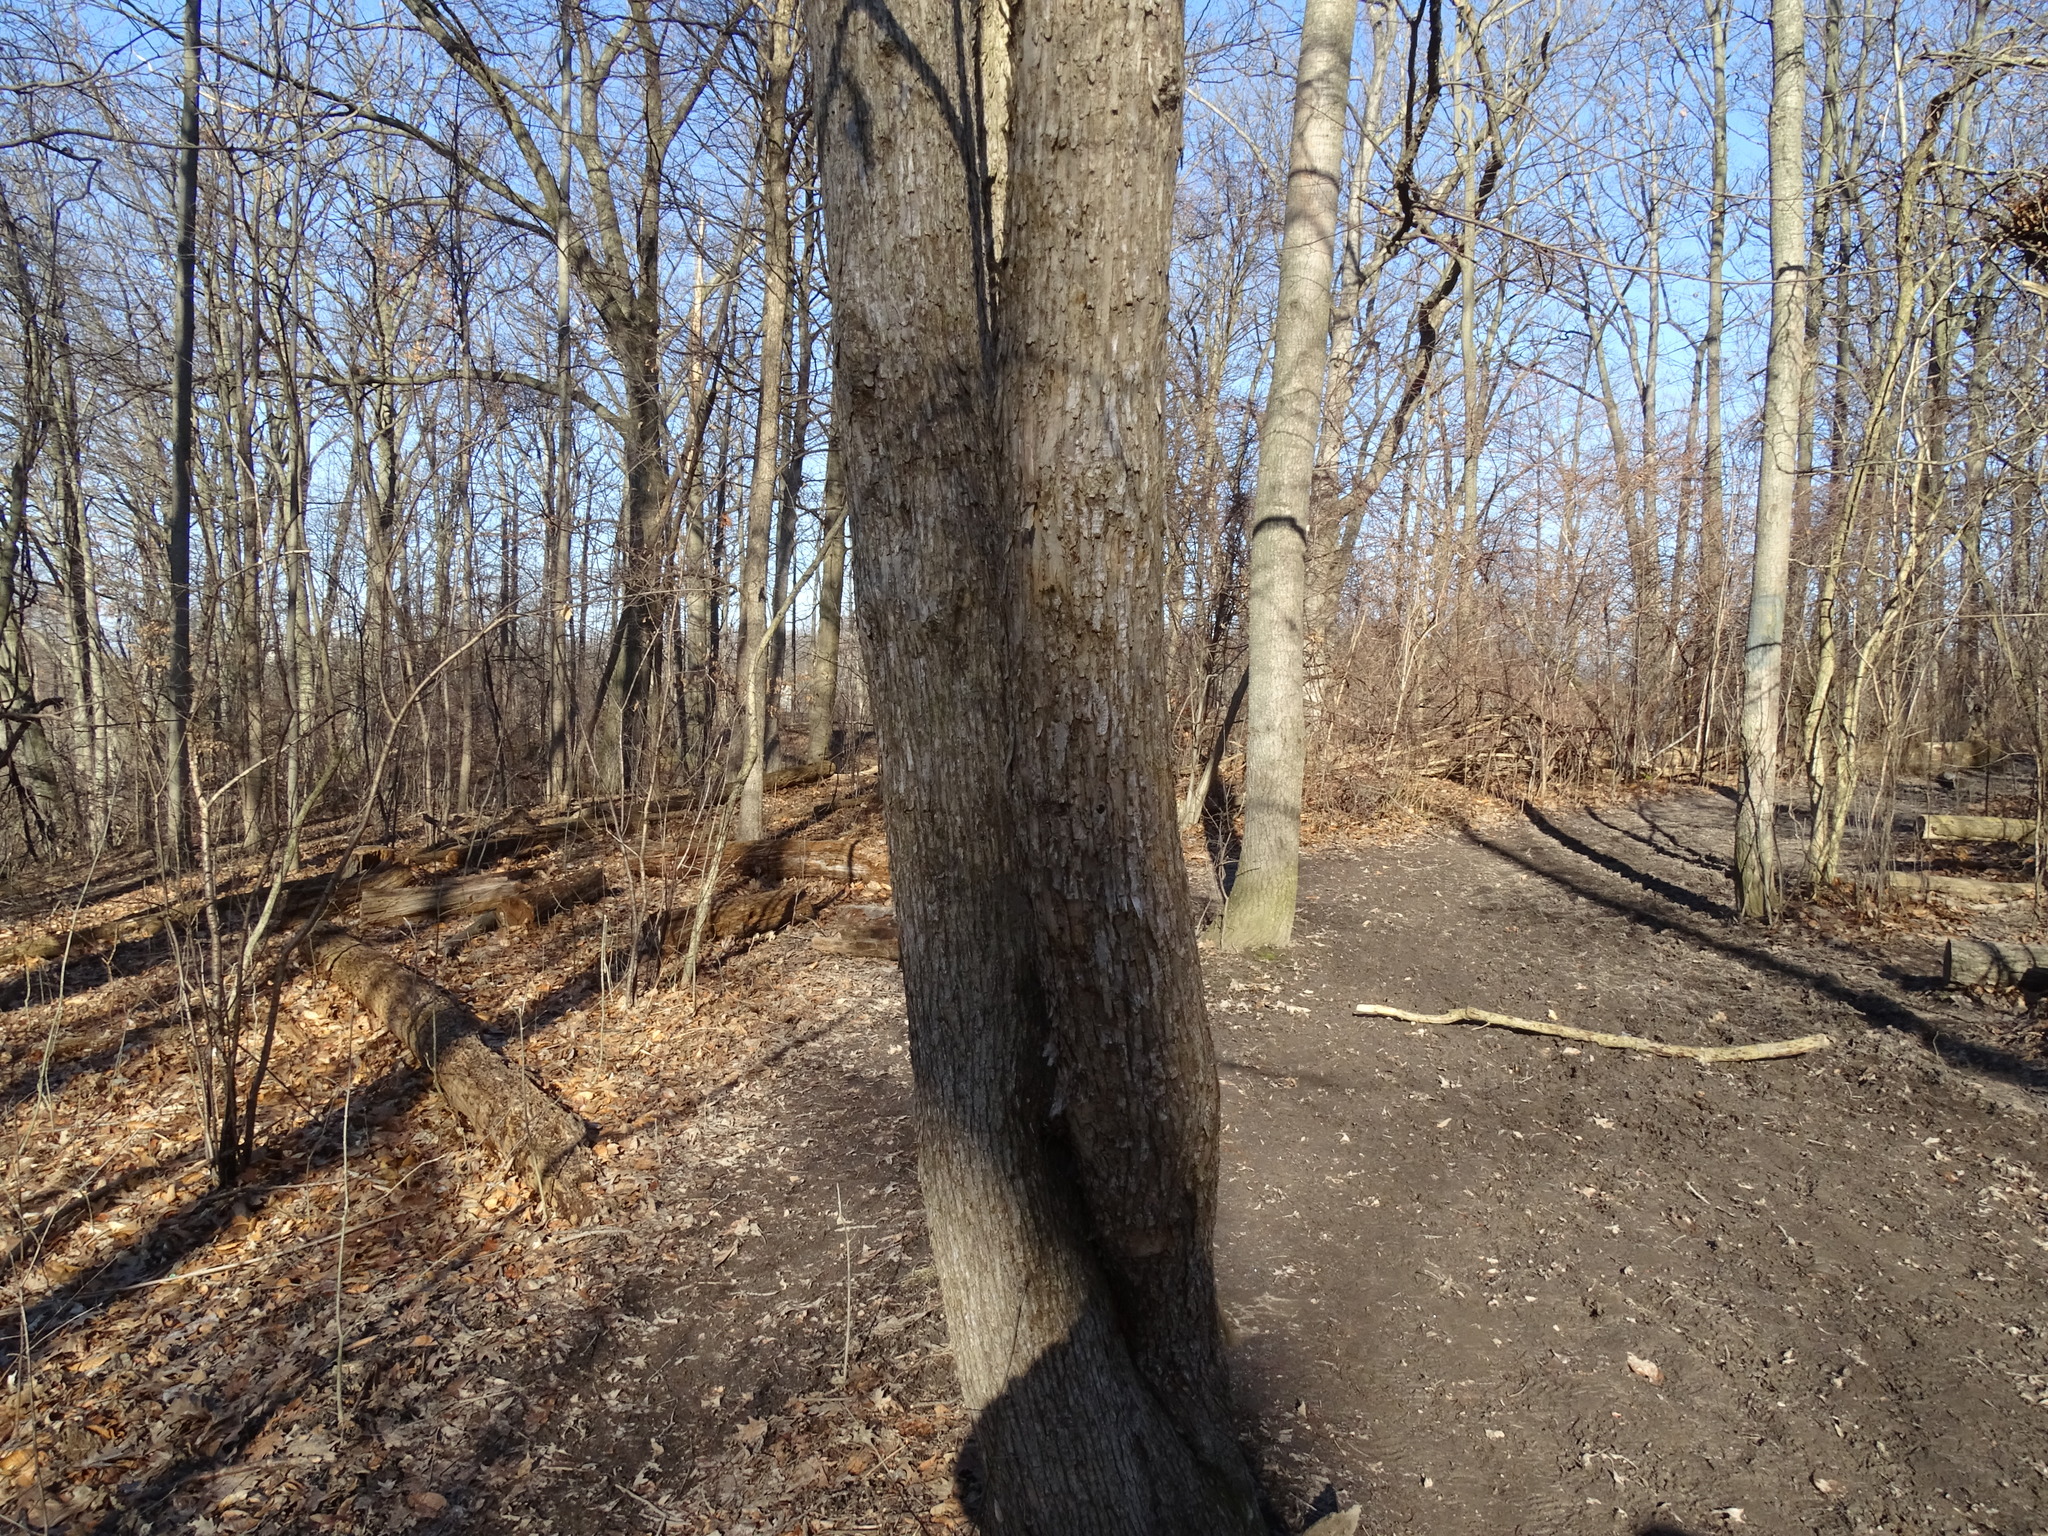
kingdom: Plantae
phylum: Tracheophyta
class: Magnoliopsida
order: Fagales
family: Betulaceae
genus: Ostrya
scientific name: Ostrya virginiana
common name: Ironwood
